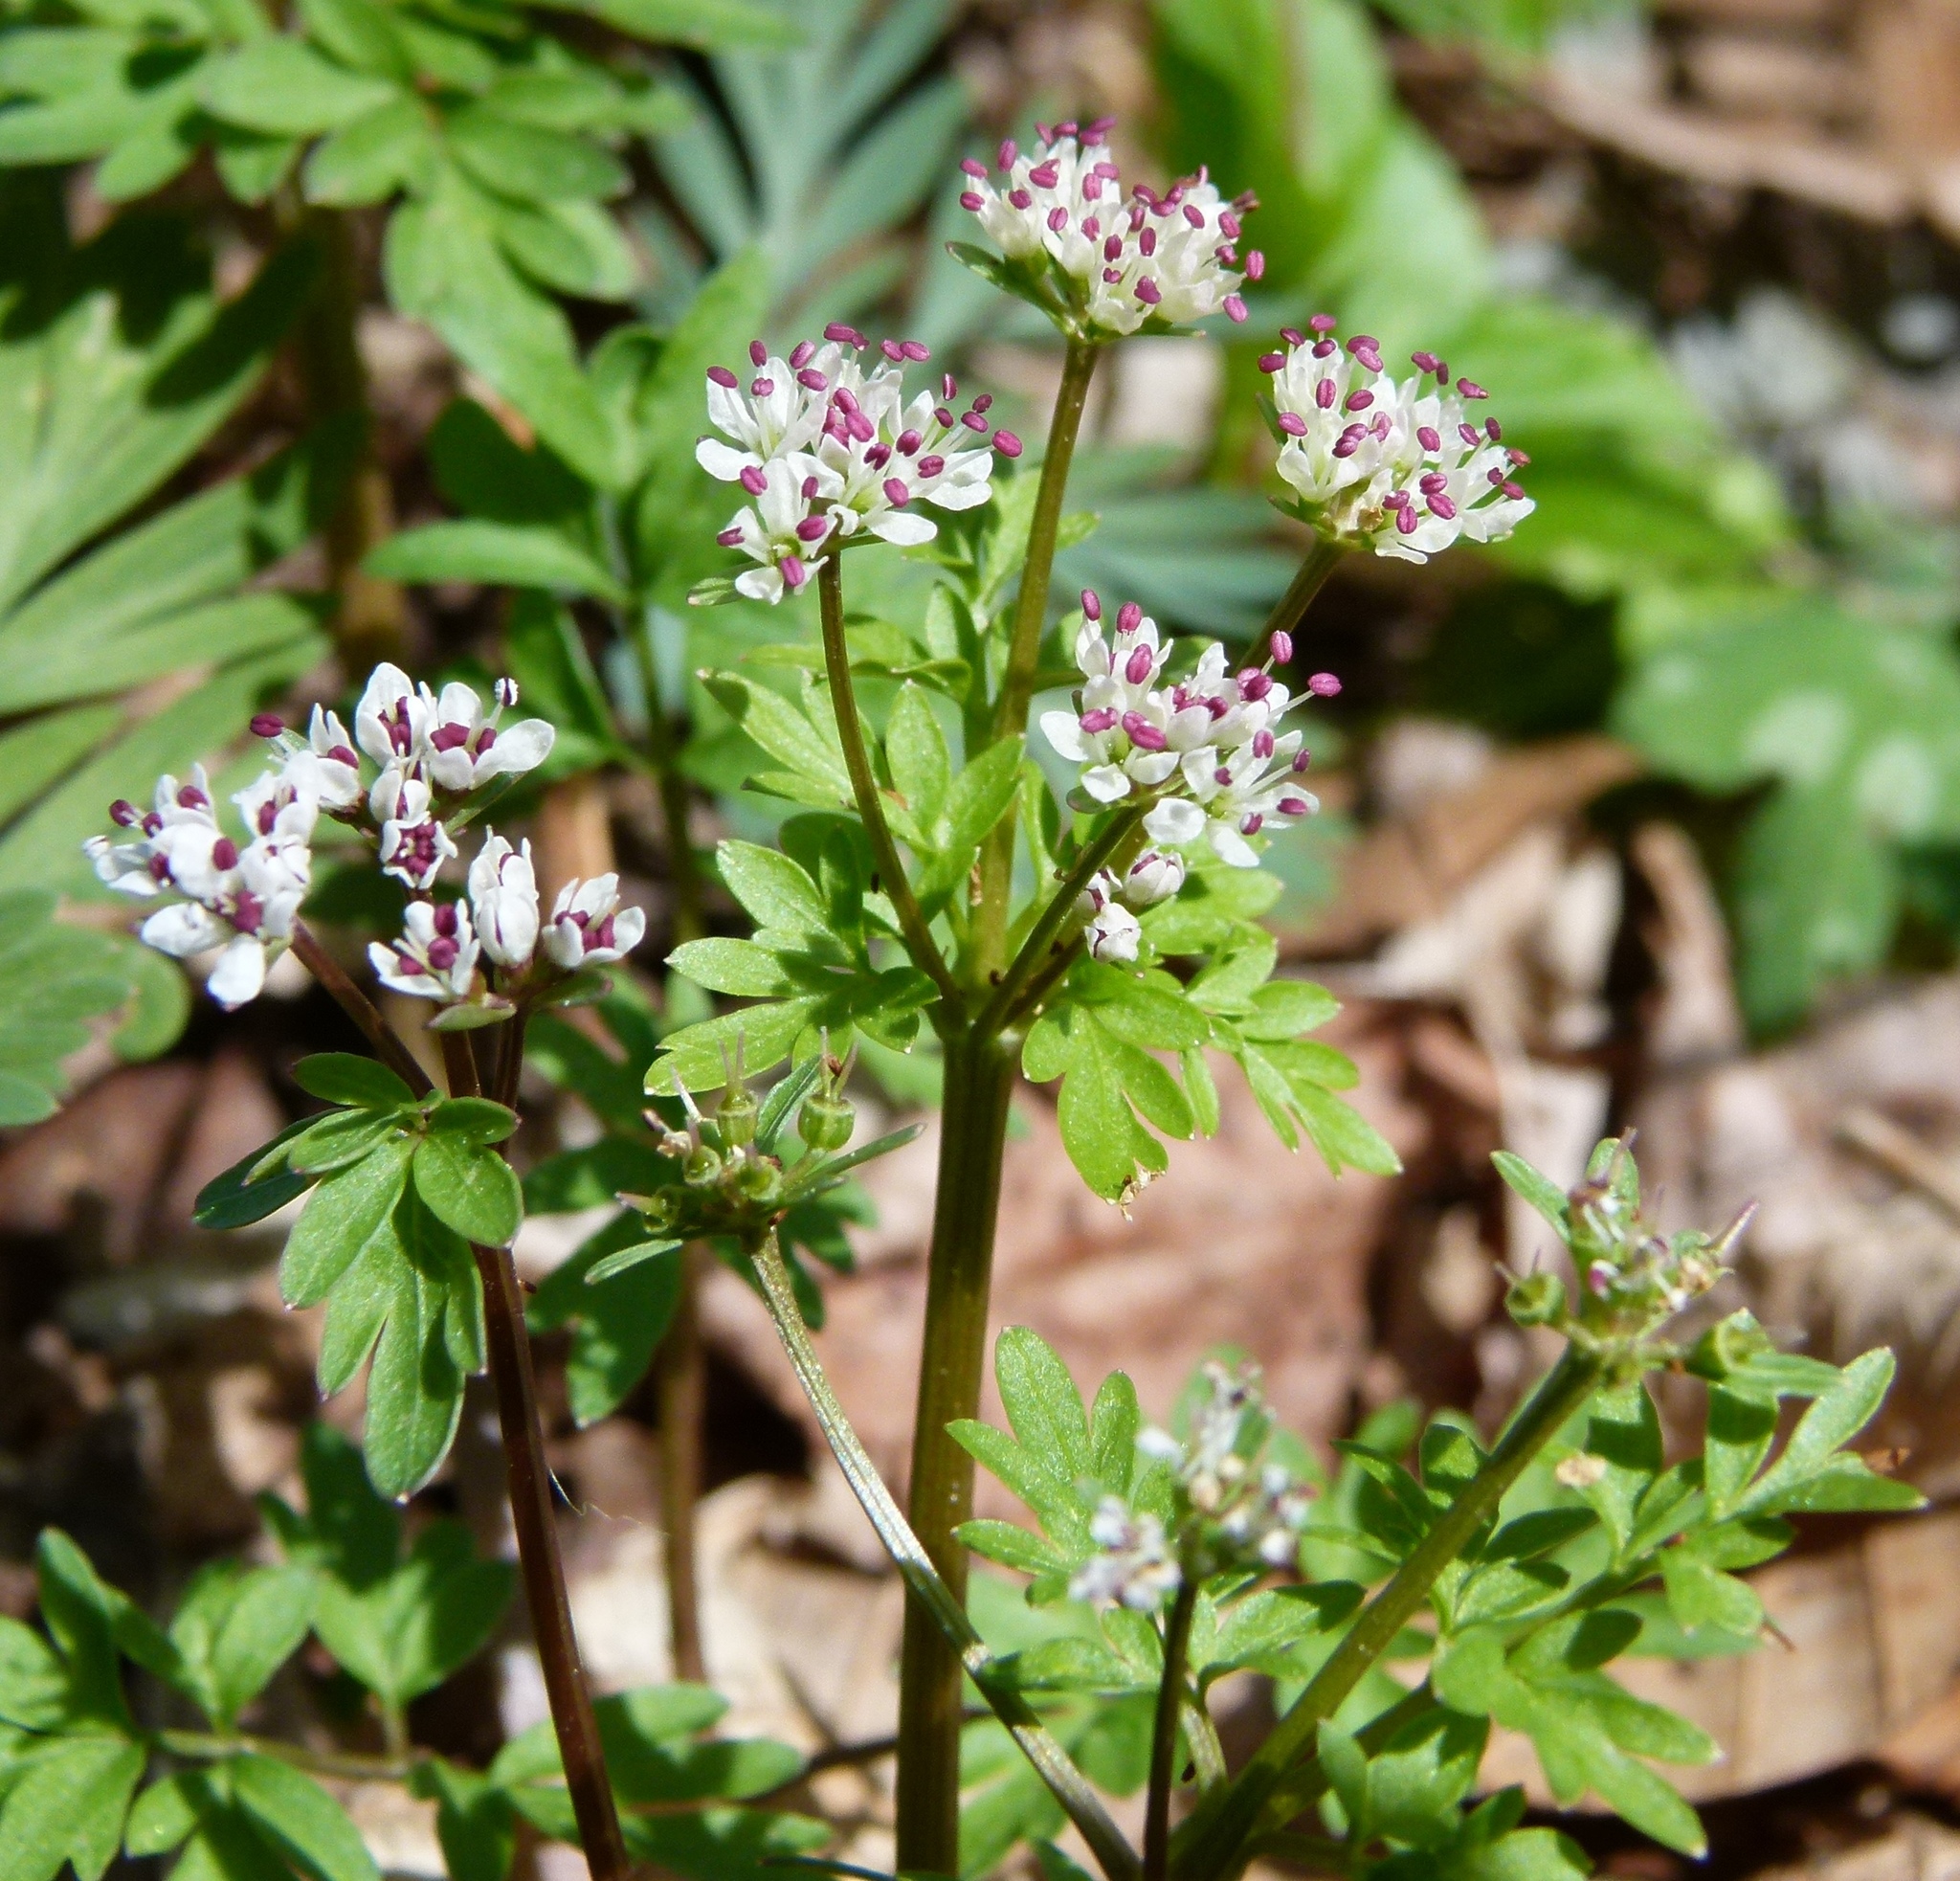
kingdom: Plantae
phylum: Tracheophyta
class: Magnoliopsida
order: Apiales
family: Apiaceae
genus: Erigenia
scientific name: Erigenia bulbosa
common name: Pepper-and-salt
